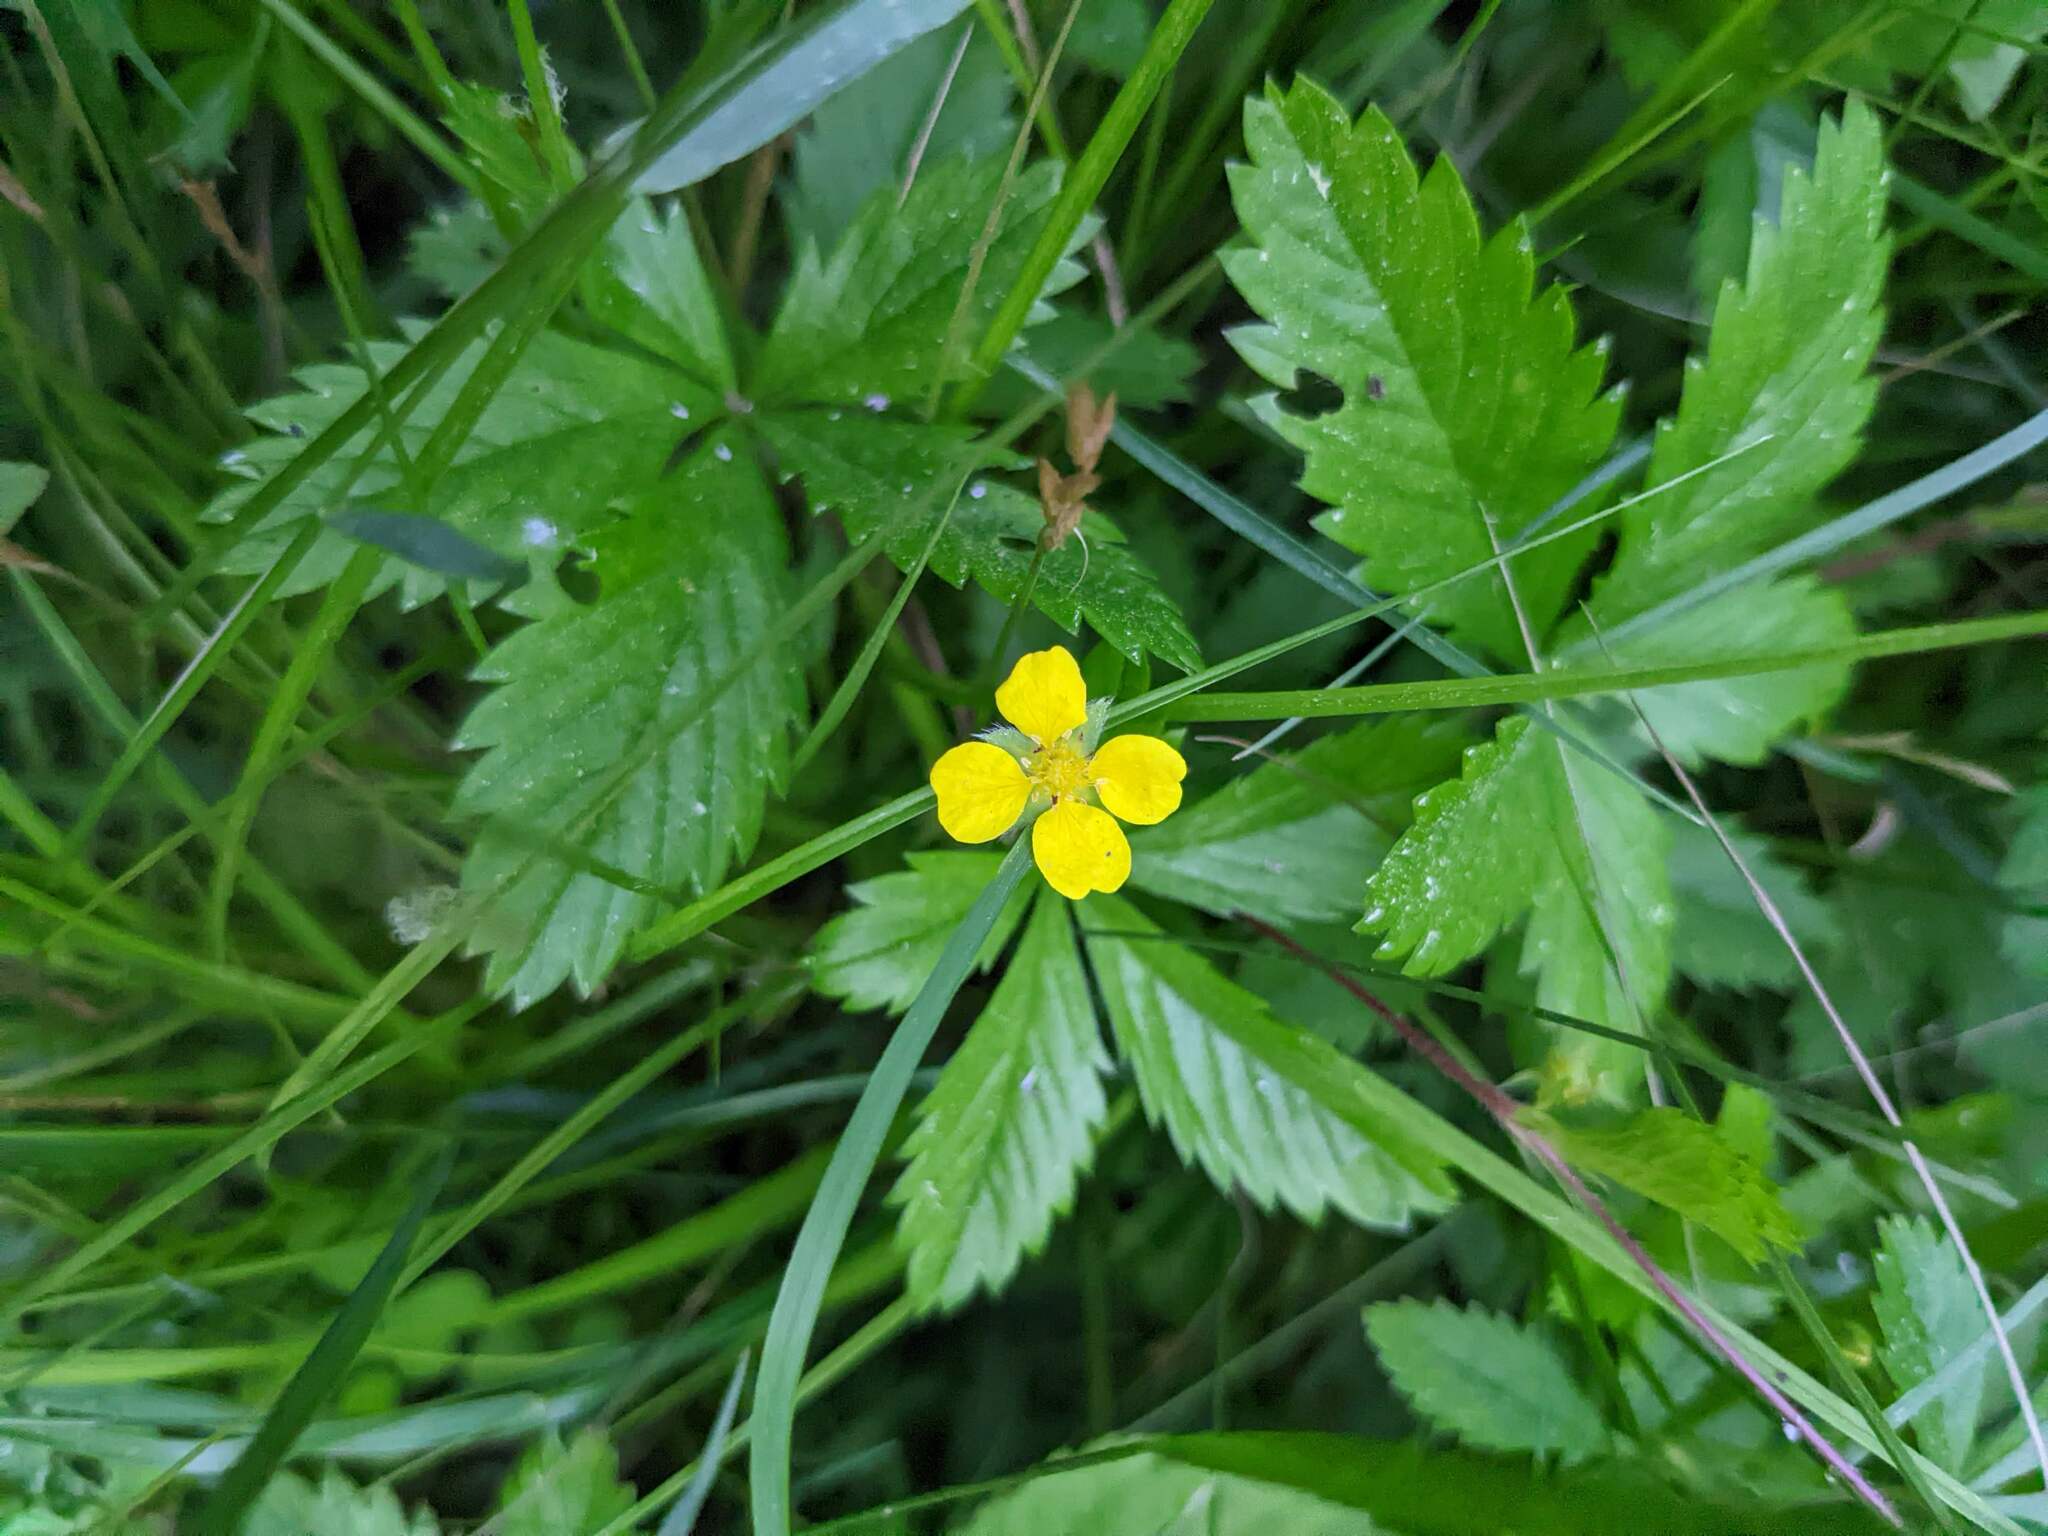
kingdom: Plantae
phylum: Tracheophyta
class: Magnoliopsida
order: Rosales
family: Rosaceae
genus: Potentilla
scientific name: Potentilla simplex
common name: Old field cinquefoil
